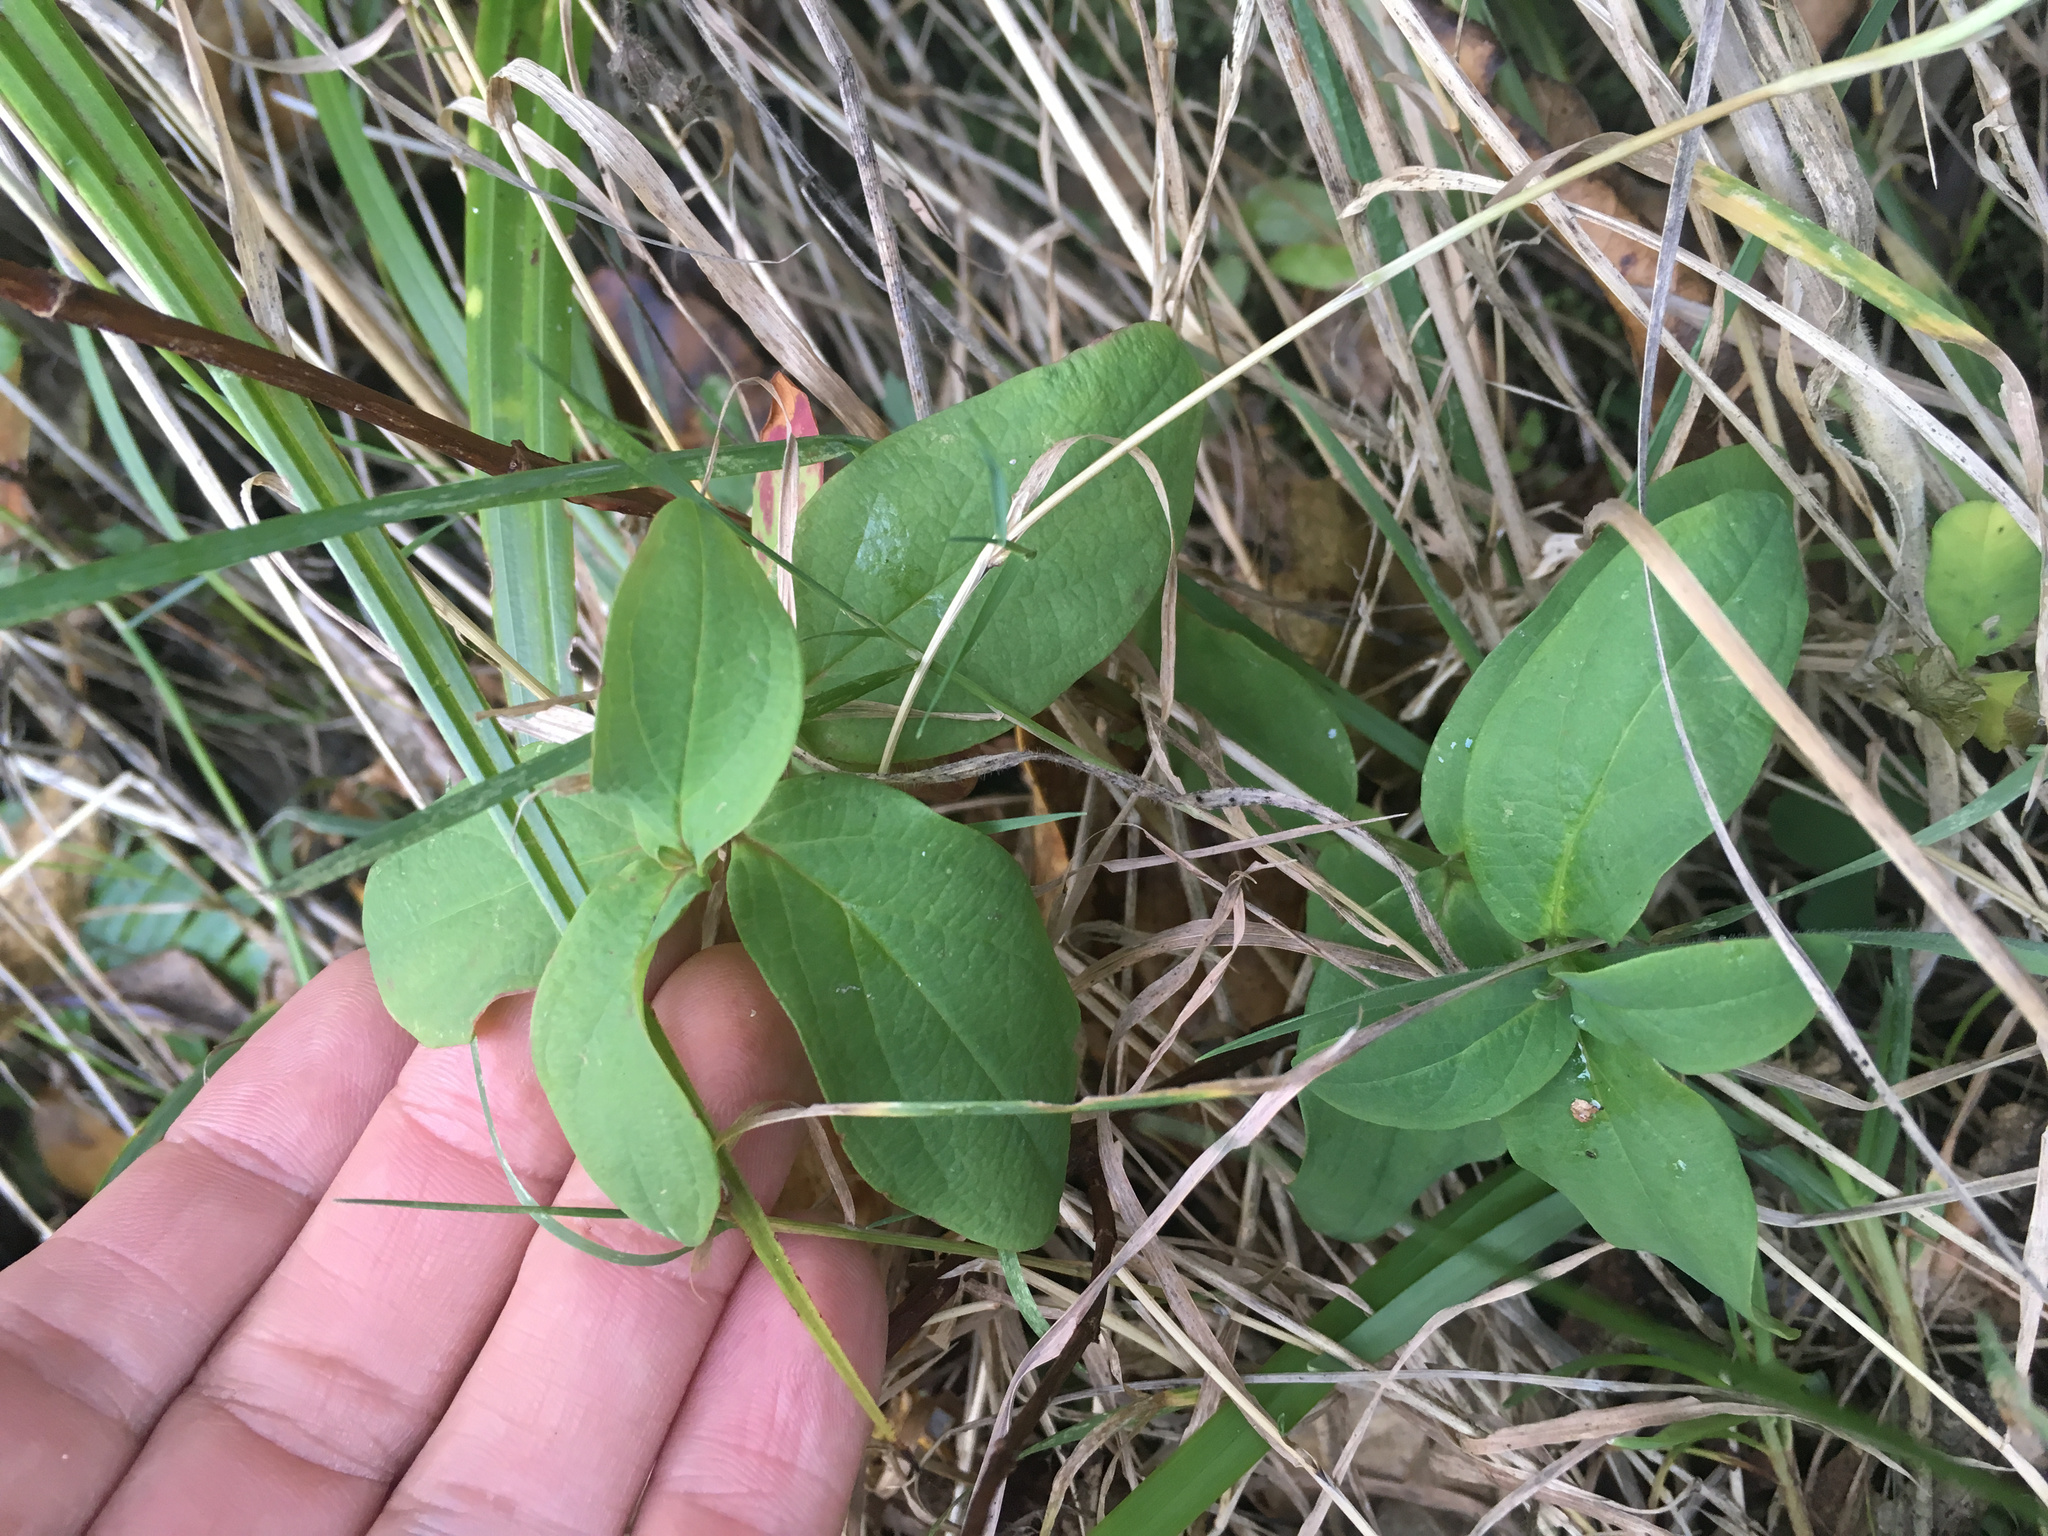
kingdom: Plantae
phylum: Tracheophyta
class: Magnoliopsida
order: Malpighiales
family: Hypericaceae
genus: Hypericum
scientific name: Hypericum androsaemum
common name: Sweet-amber
